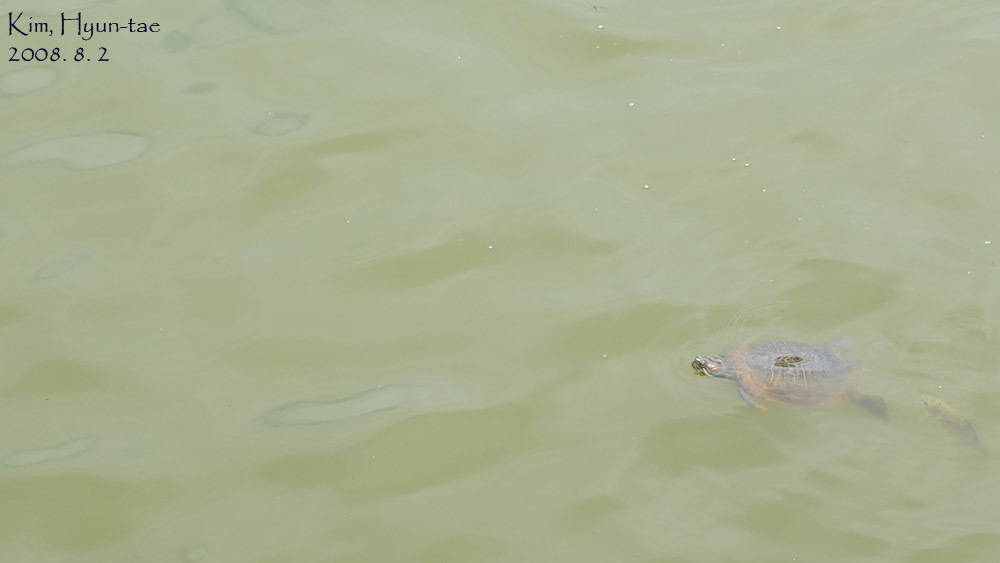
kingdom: Animalia
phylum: Chordata
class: Testudines
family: Emydidae
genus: Trachemys
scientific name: Trachemys scripta
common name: Slider
